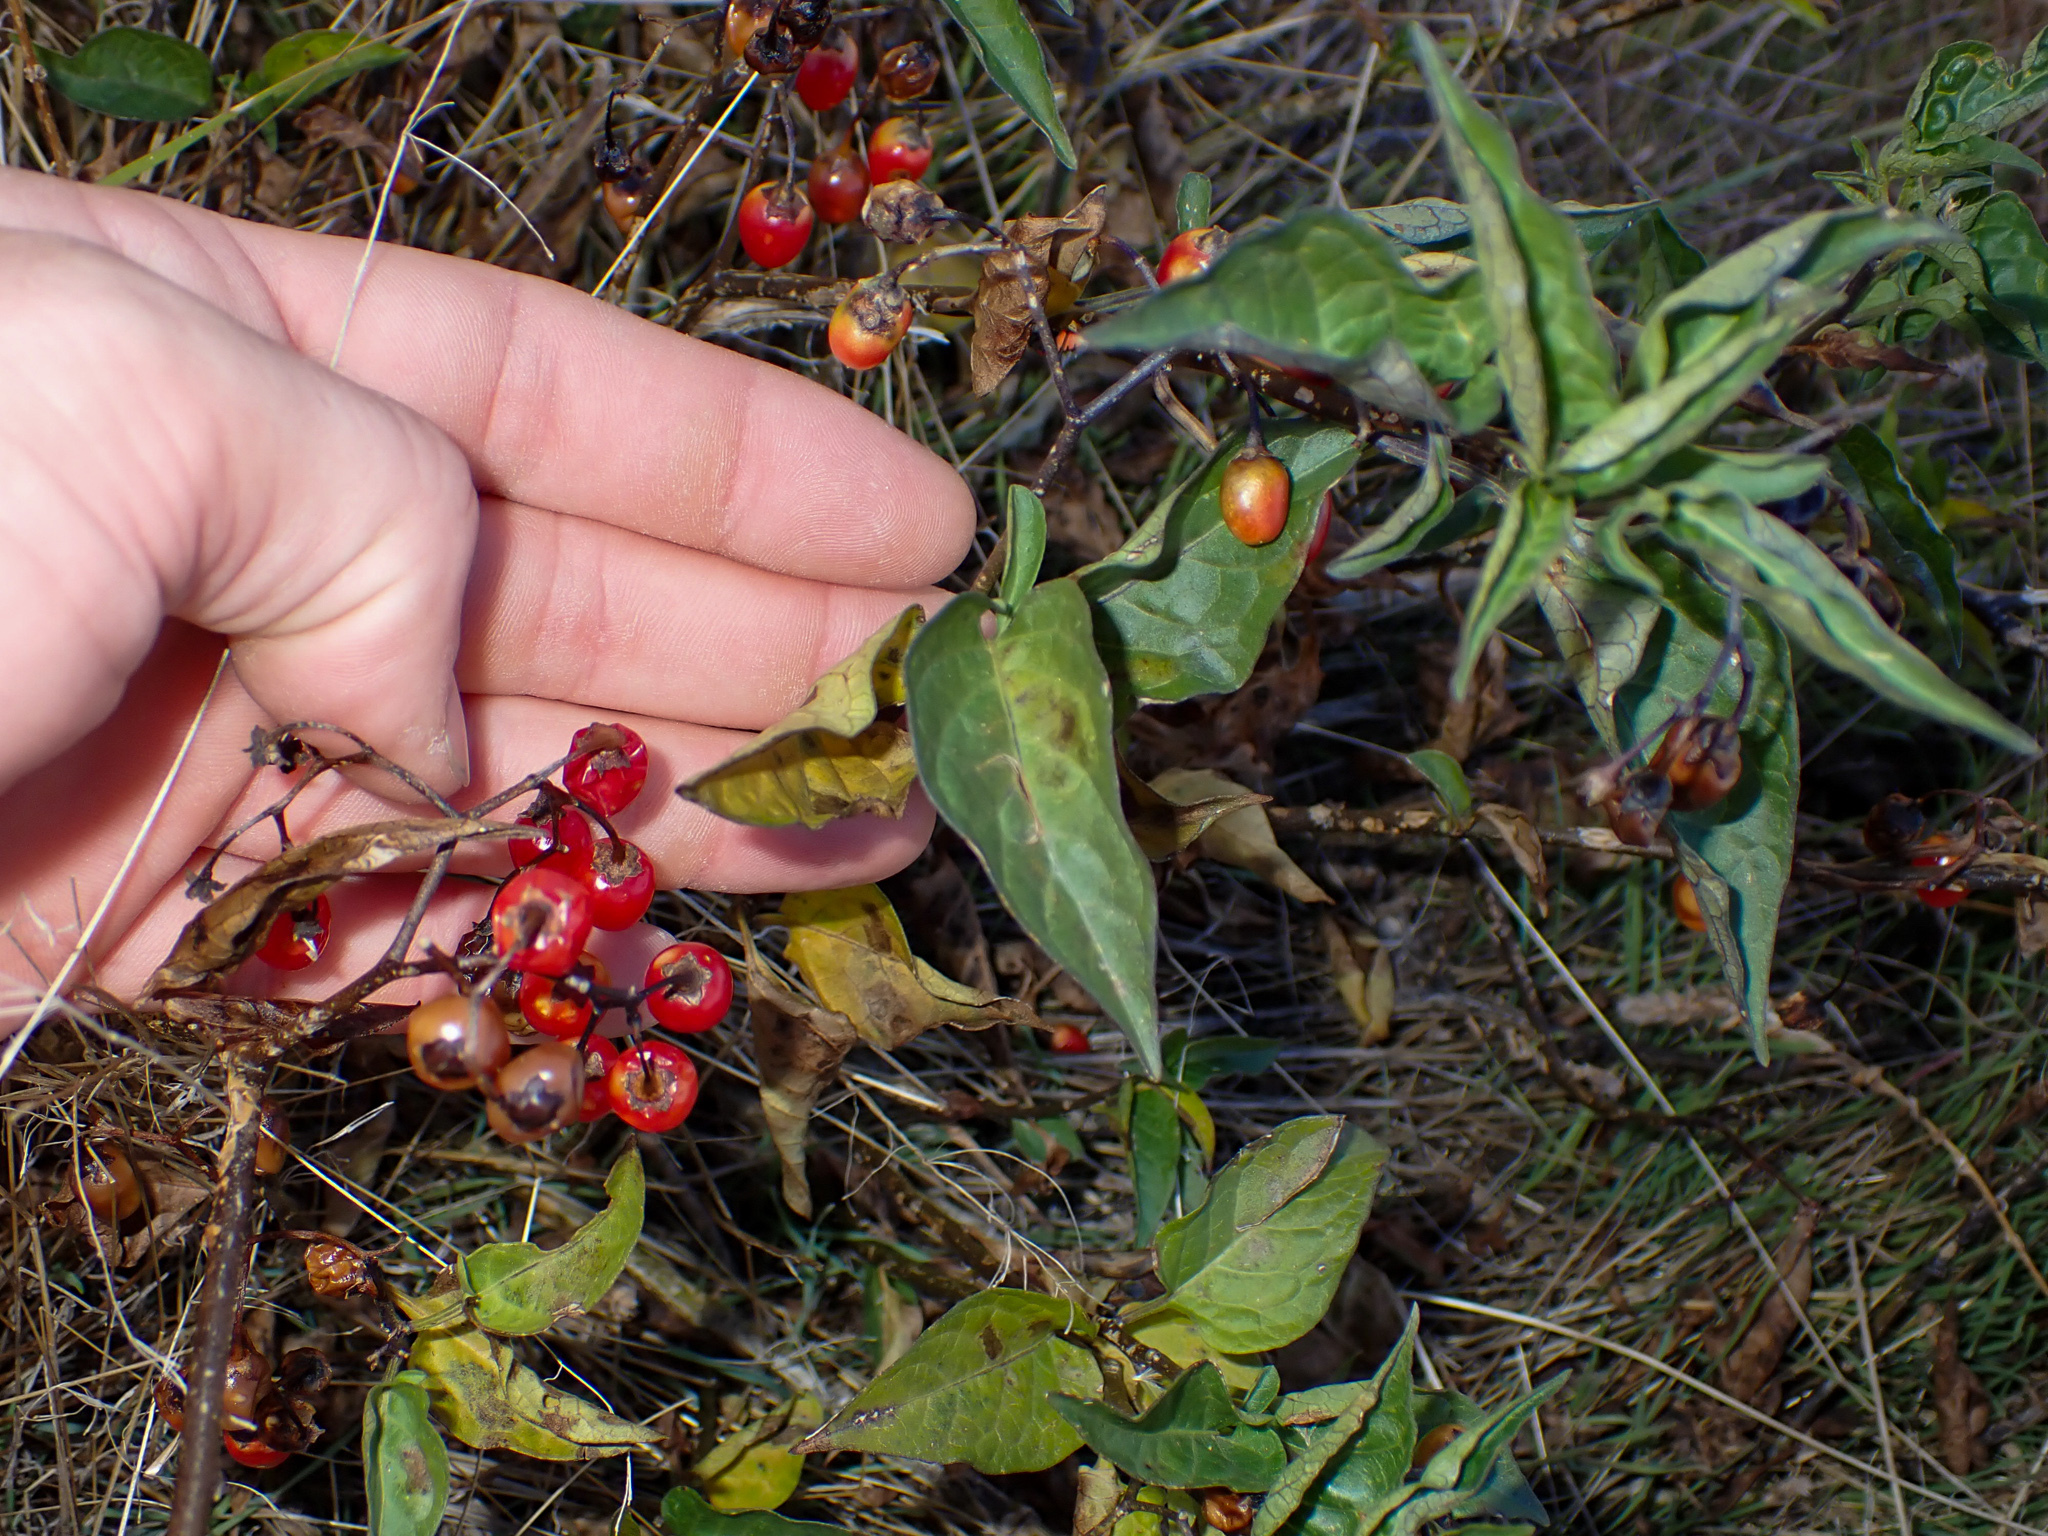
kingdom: Plantae
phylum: Tracheophyta
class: Magnoliopsida
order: Solanales
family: Solanaceae
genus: Solanum
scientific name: Solanum dulcamara
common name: Climbing nightshade
